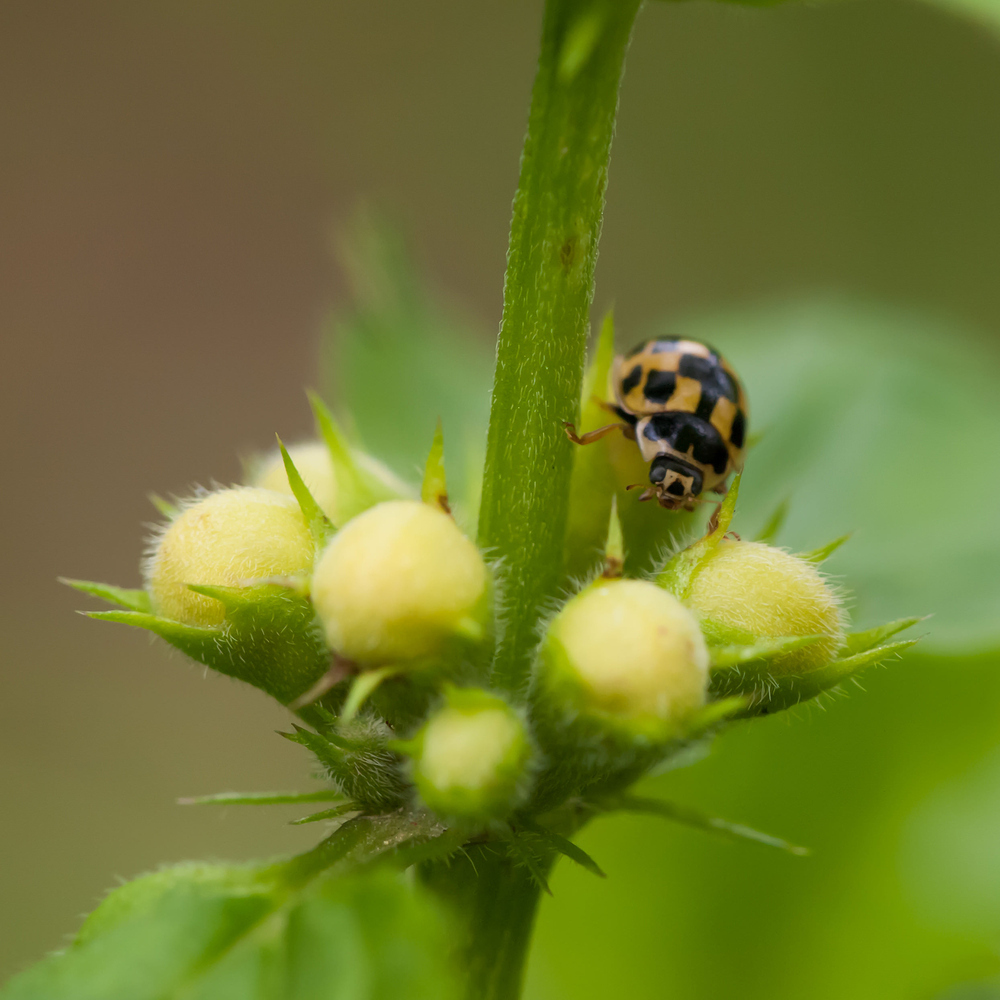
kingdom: Animalia
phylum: Arthropoda
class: Insecta
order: Coleoptera
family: Coccinellidae
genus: Propylaea
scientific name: Propylaea quatuordecimpunctata
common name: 14-spotted ladybird beetle
